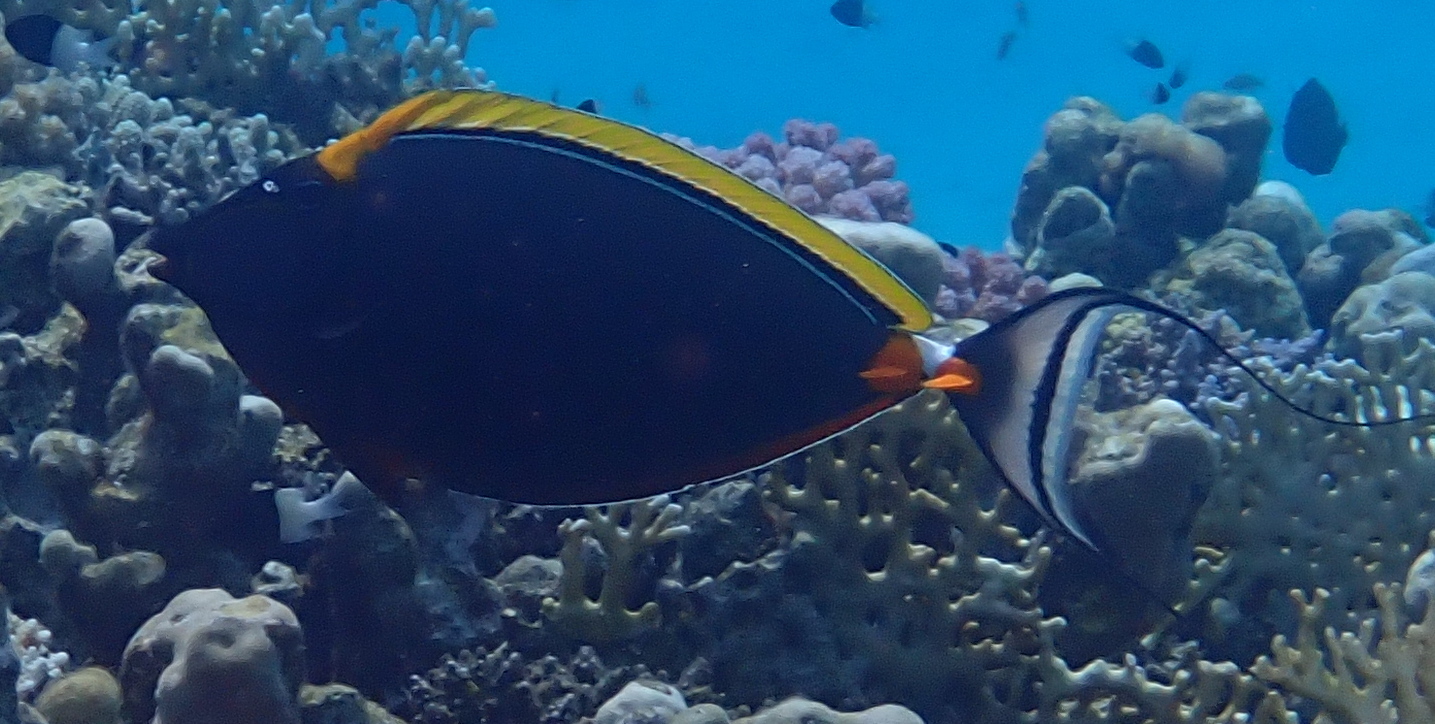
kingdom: Animalia
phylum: Chordata
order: Perciformes
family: Acanthuridae
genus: Naso
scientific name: Naso elegans
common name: Orangespine unicornfish
